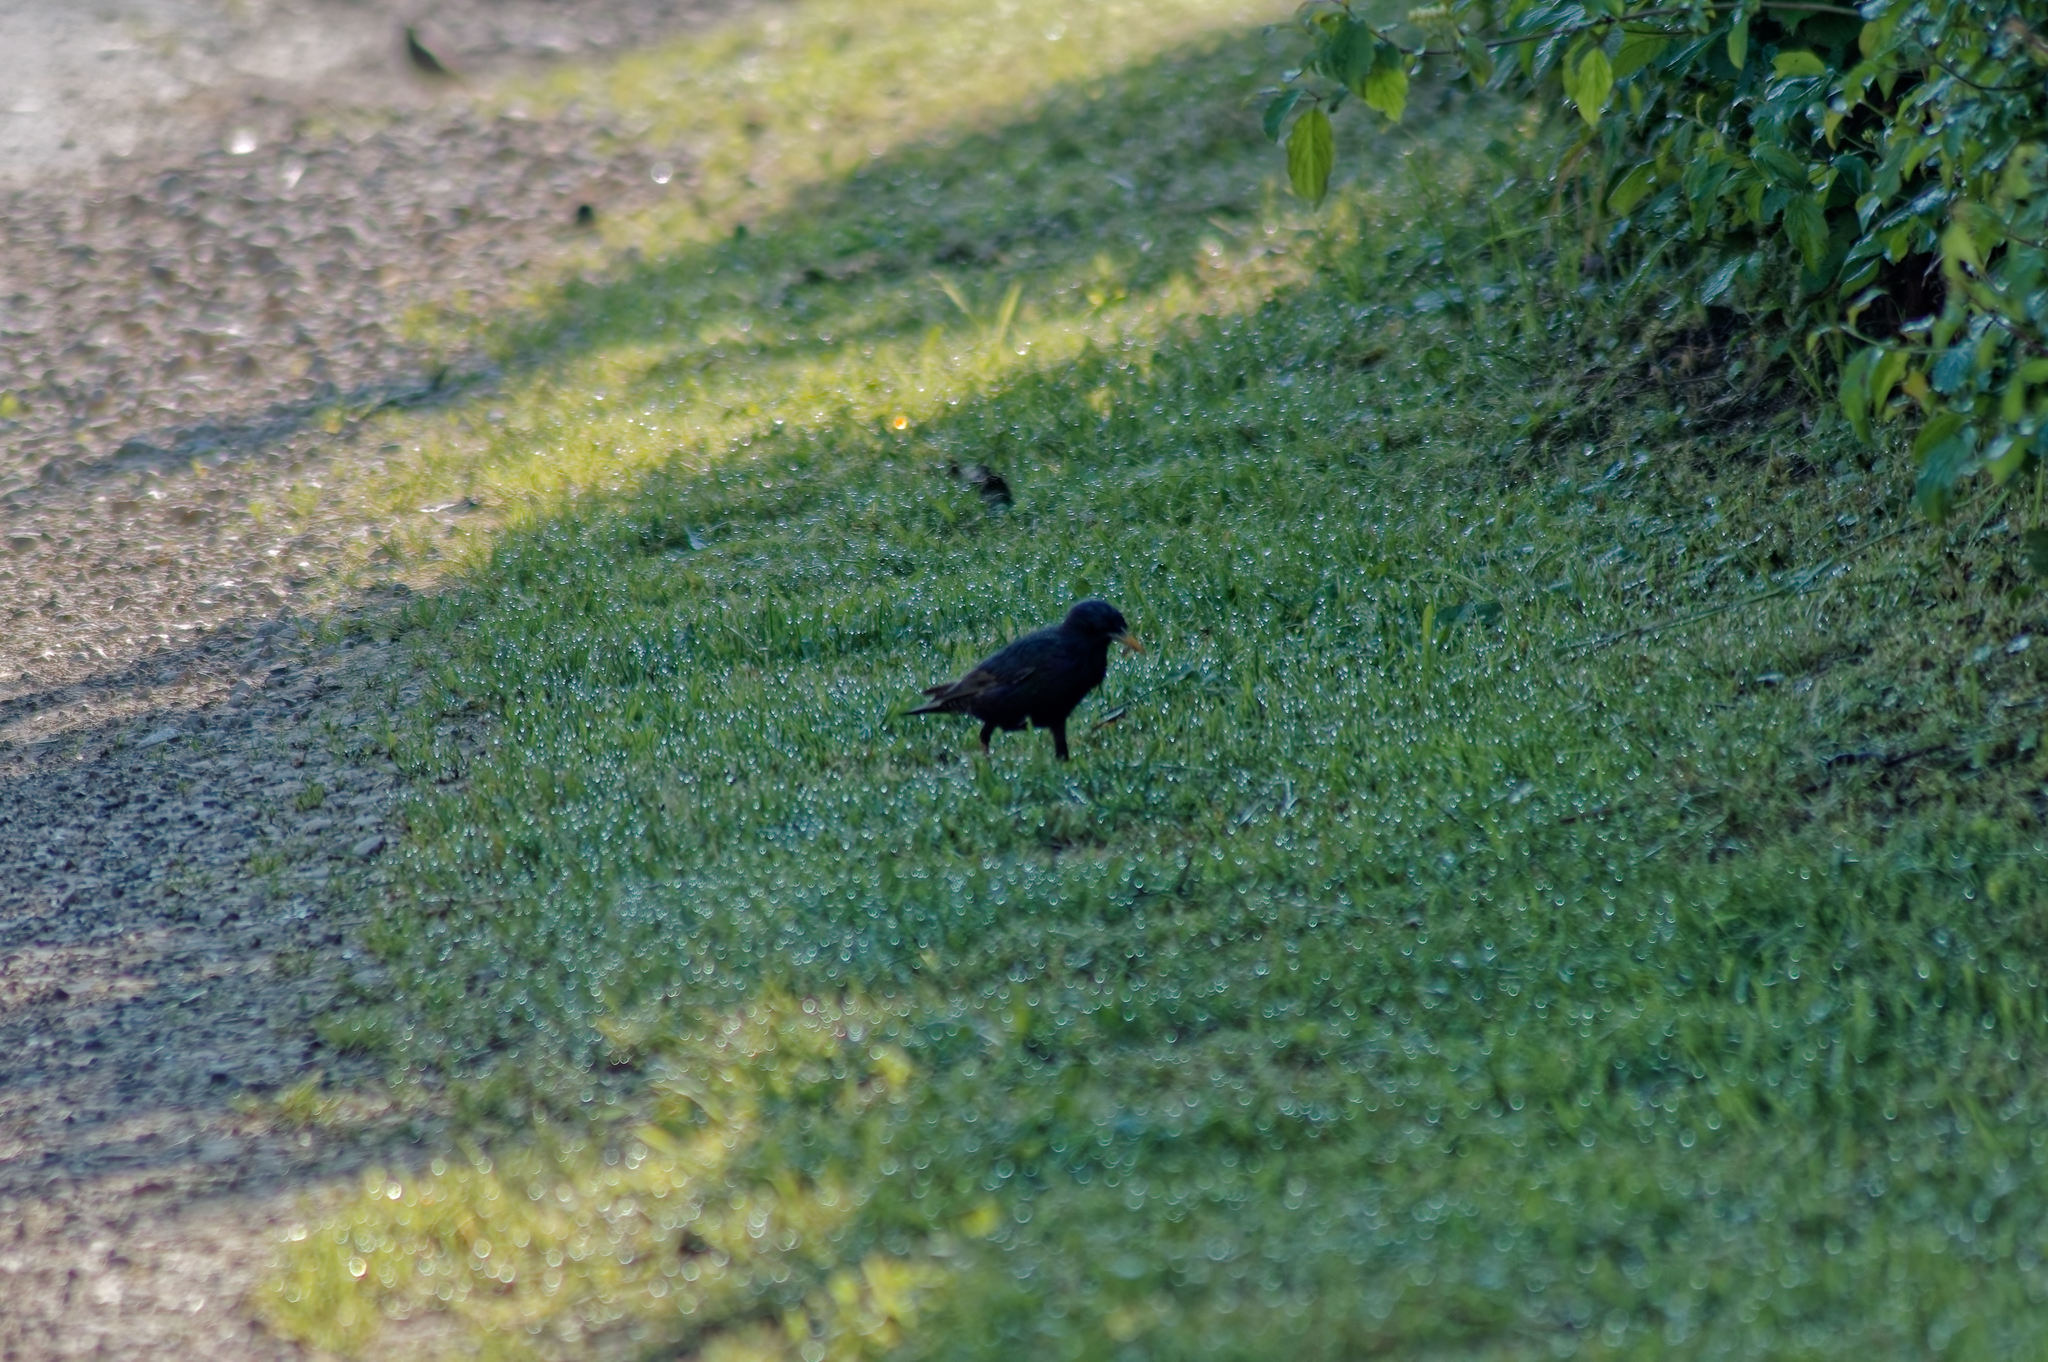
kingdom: Animalia
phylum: Chordata
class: Aves
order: Passeriformes
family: Turdidae
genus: Turdus
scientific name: Turdus merula
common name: Common blackbird
